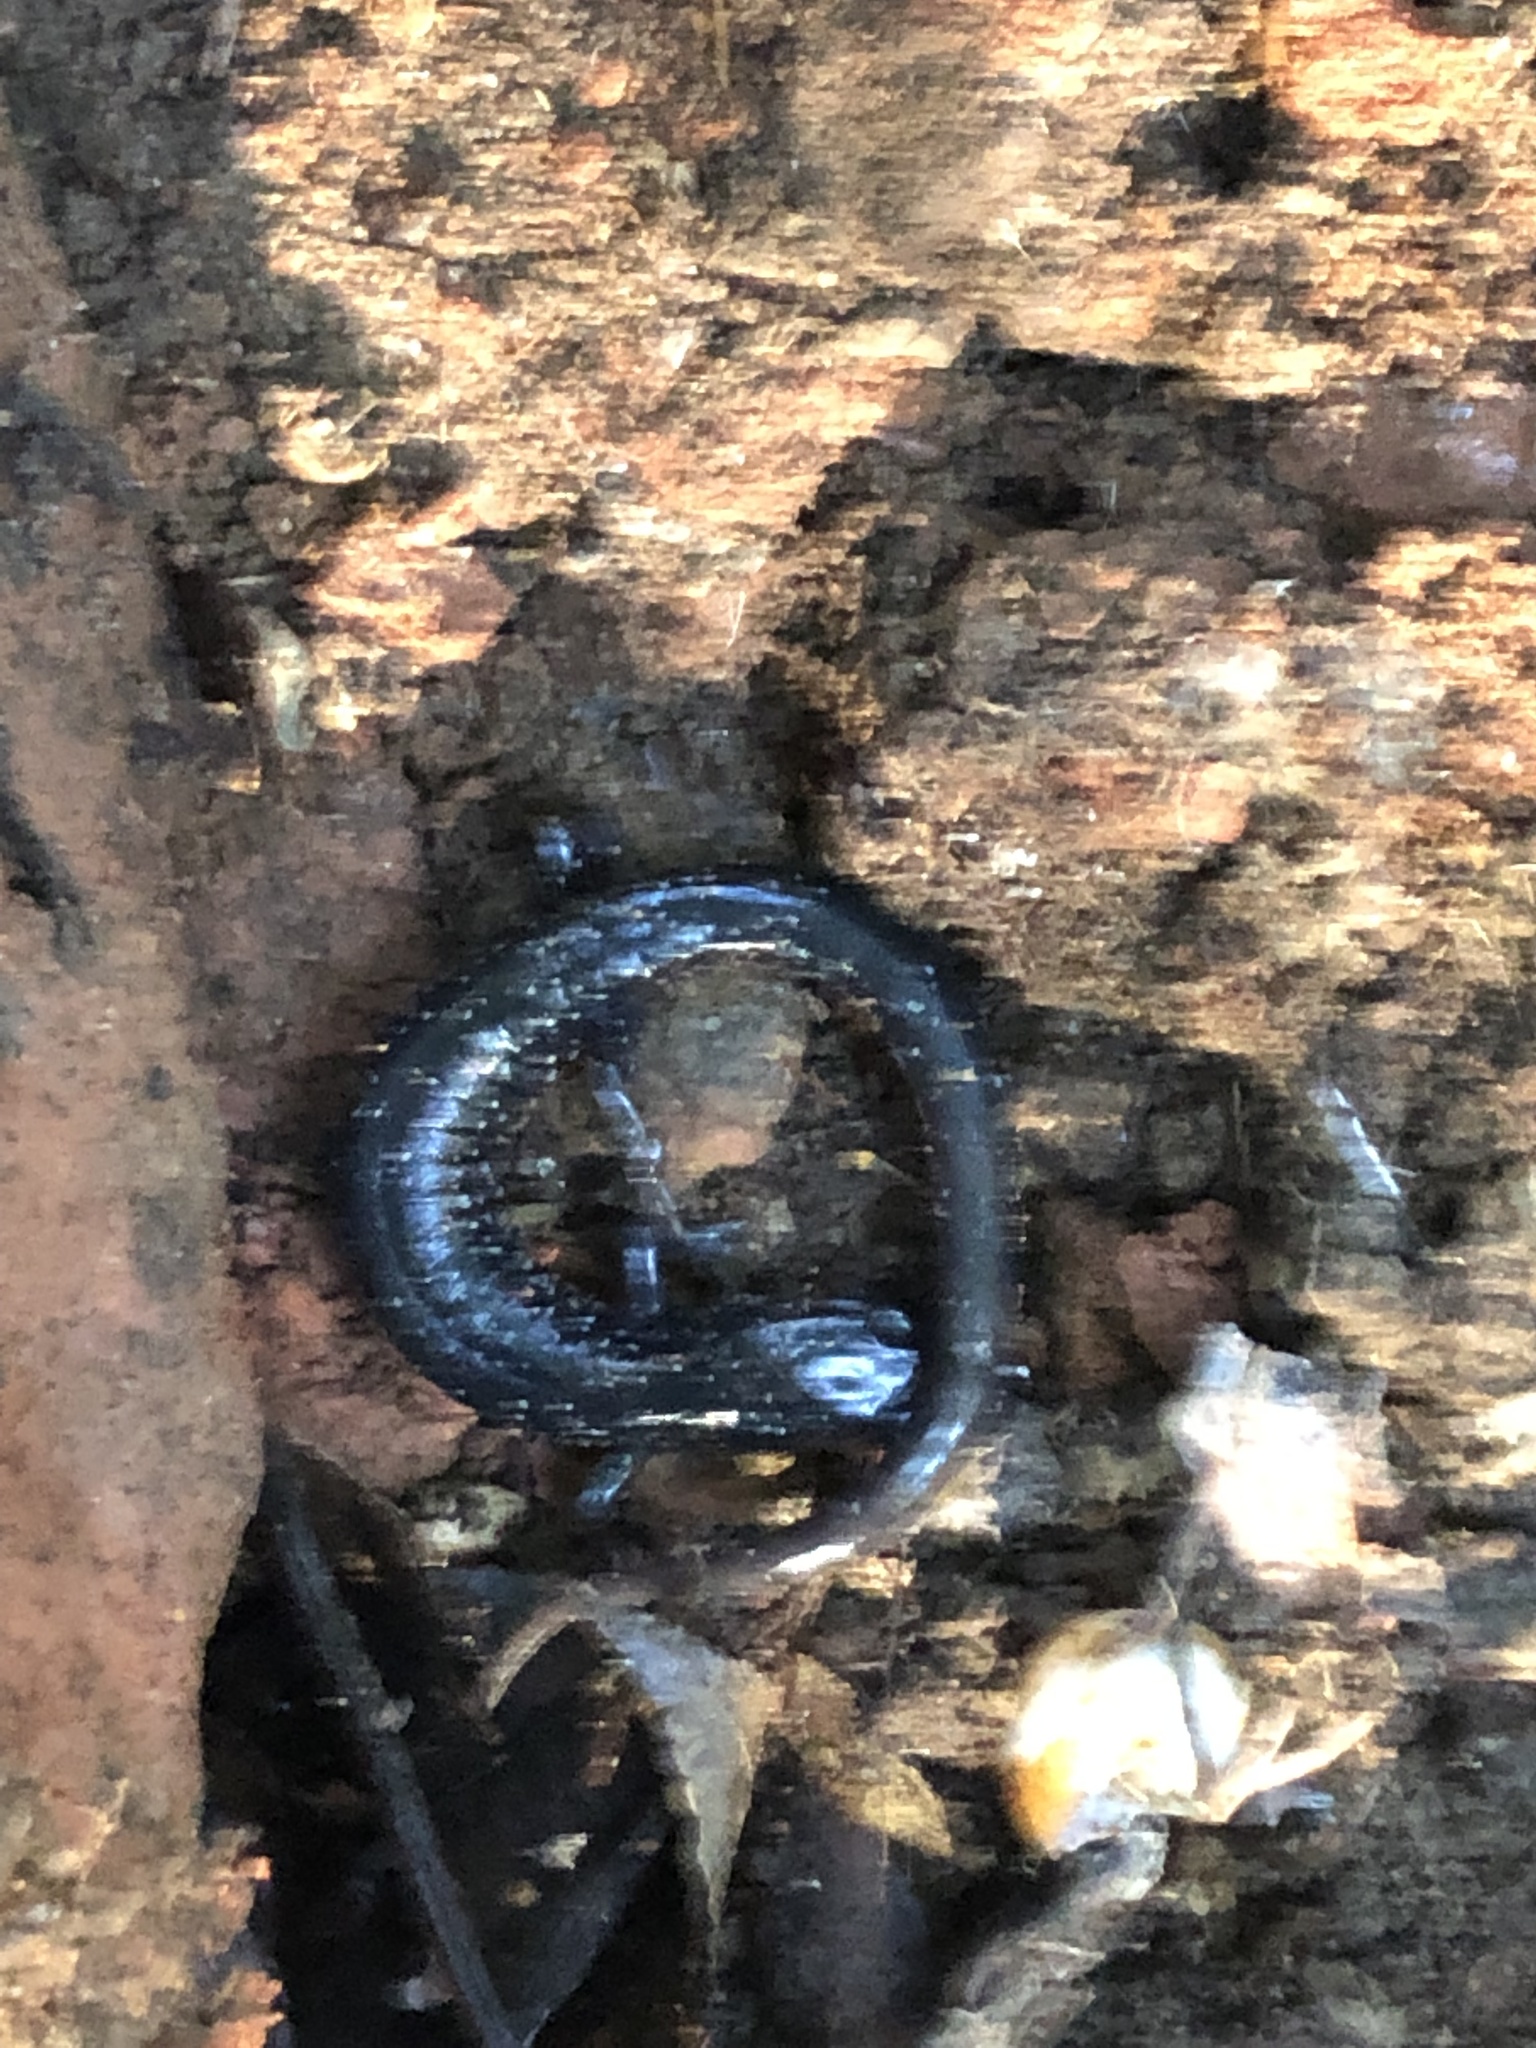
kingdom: Animalia
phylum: Chordata
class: Amphibia
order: Caudata
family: Plethodontidae
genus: Plethodon
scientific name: Plethodon glutinosus
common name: Northern slimy salamander
